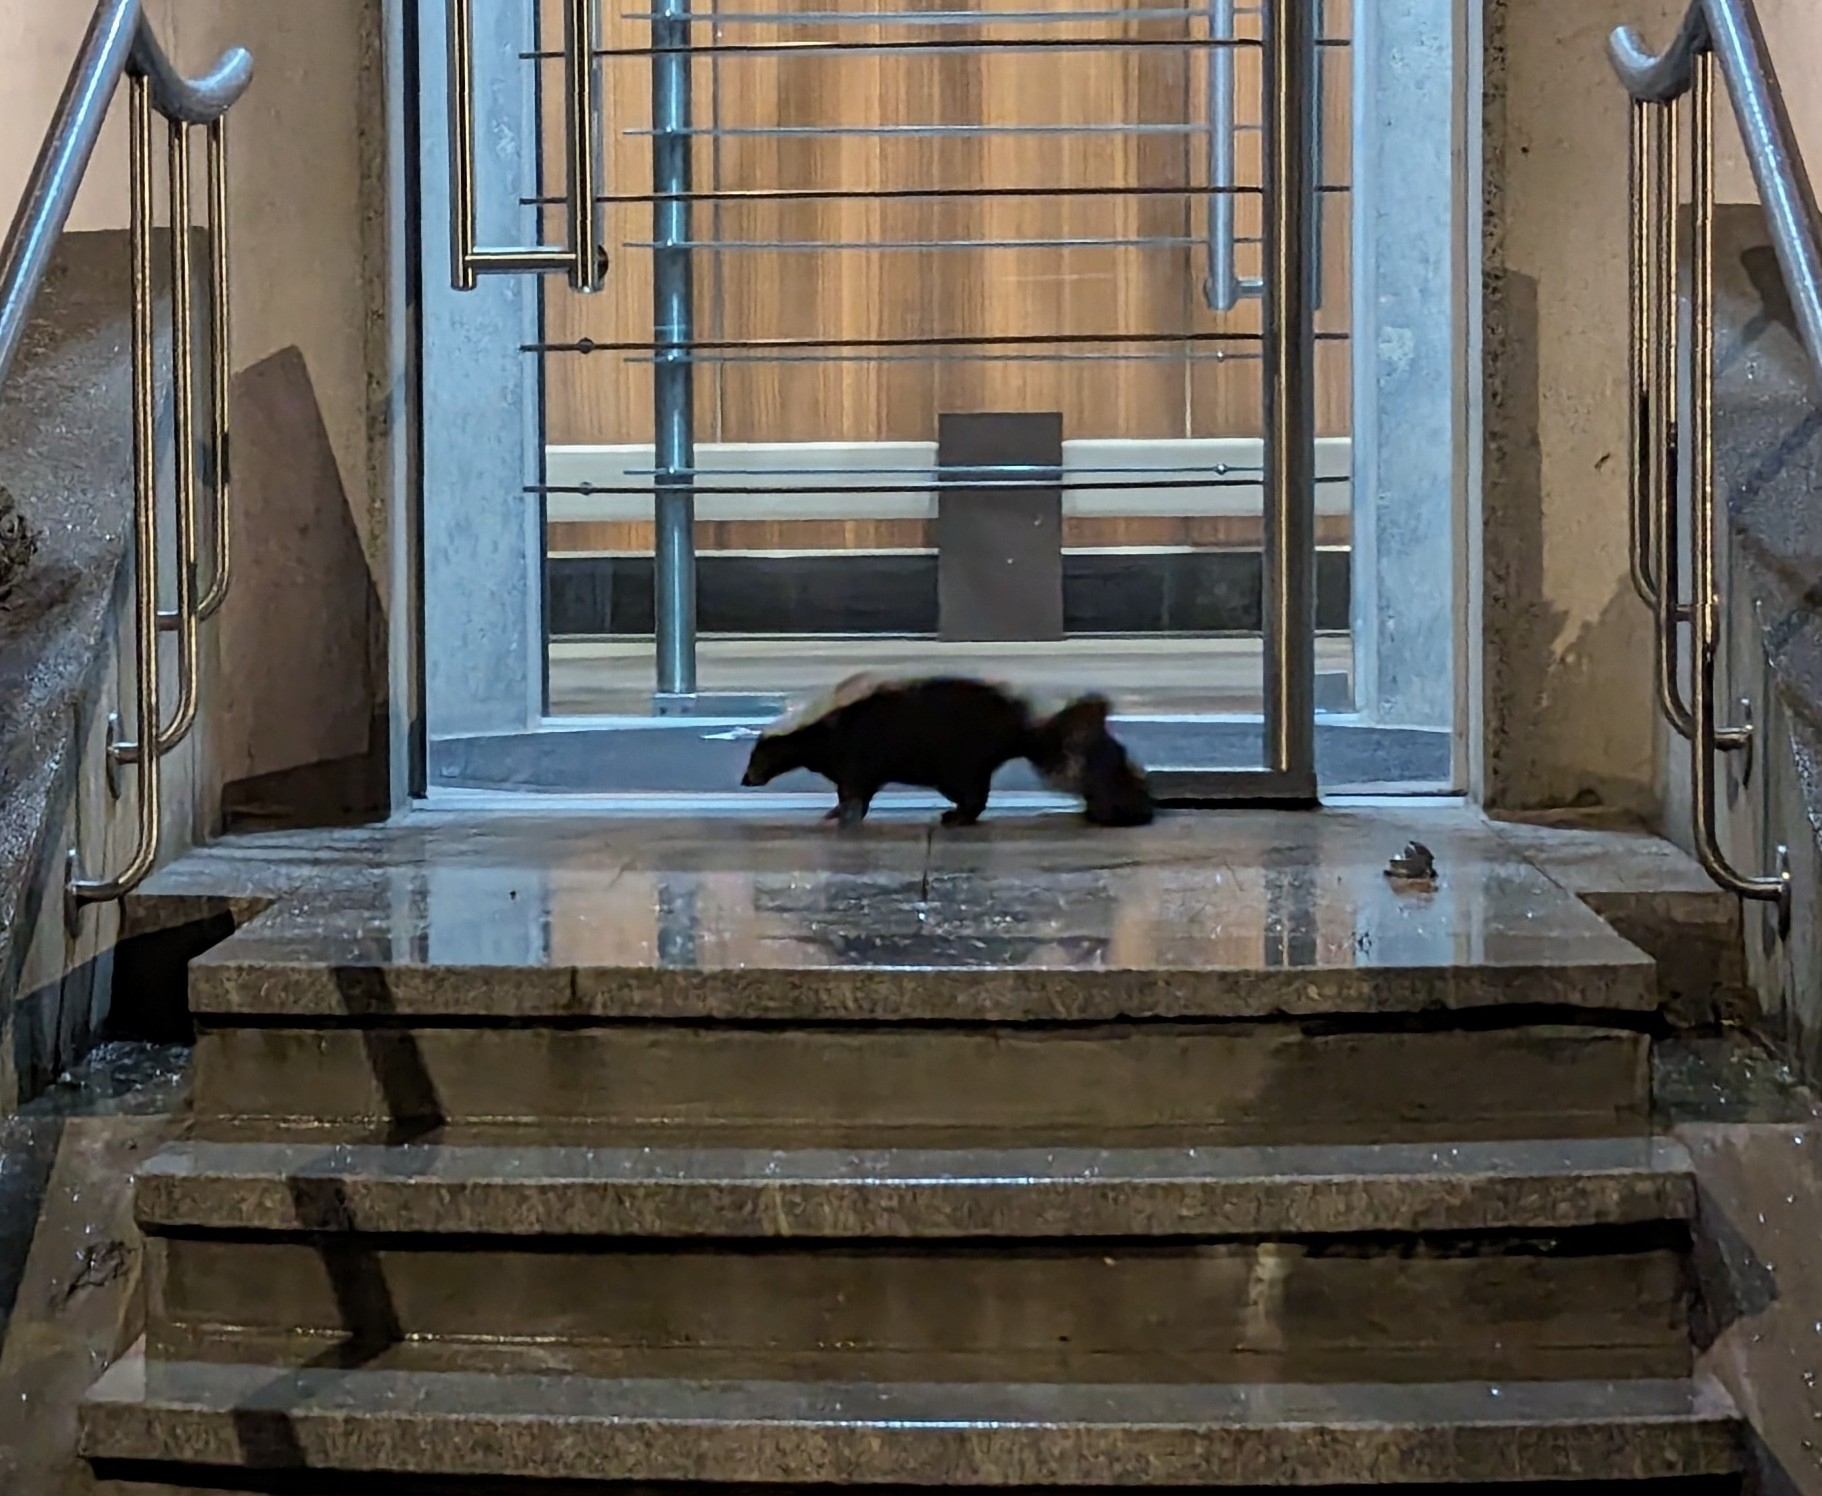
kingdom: Animalia
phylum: Chordata
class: Mammalia
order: Carnivora
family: Mephitidae
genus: Mephitis
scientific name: Mephitis mephitis
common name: Striped skunk
